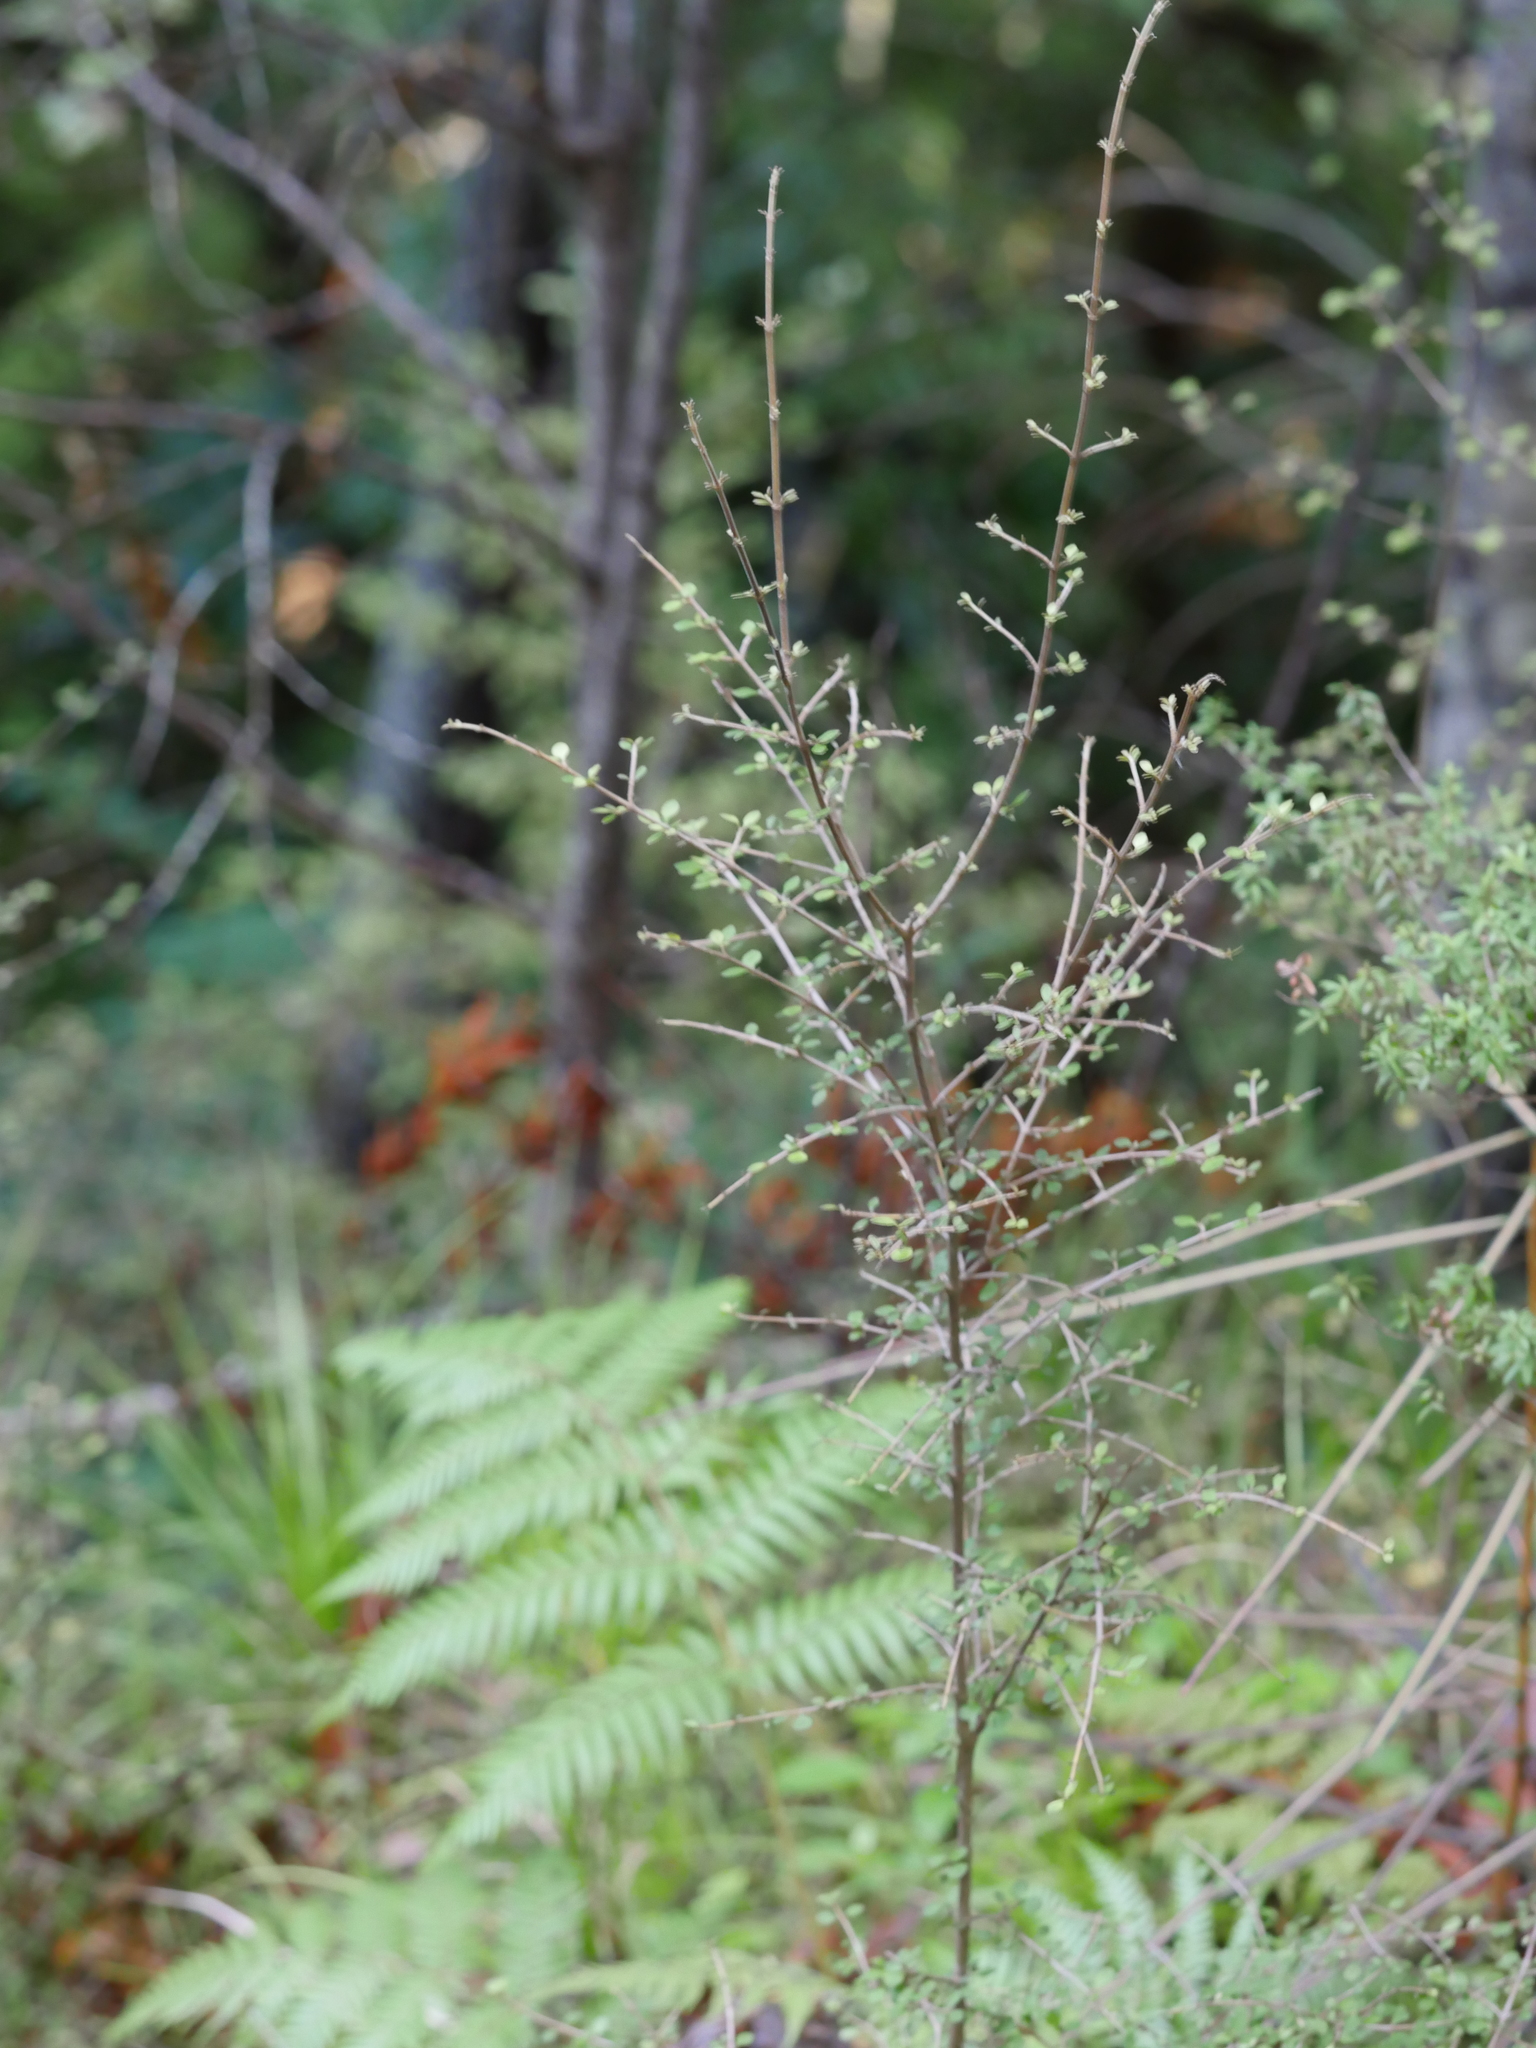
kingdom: Plantae
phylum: Tracheophyta
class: Magnoliopsida
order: Gentianales
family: Rubiaceae
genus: Coprosma
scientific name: Coprosma rhamnoides
